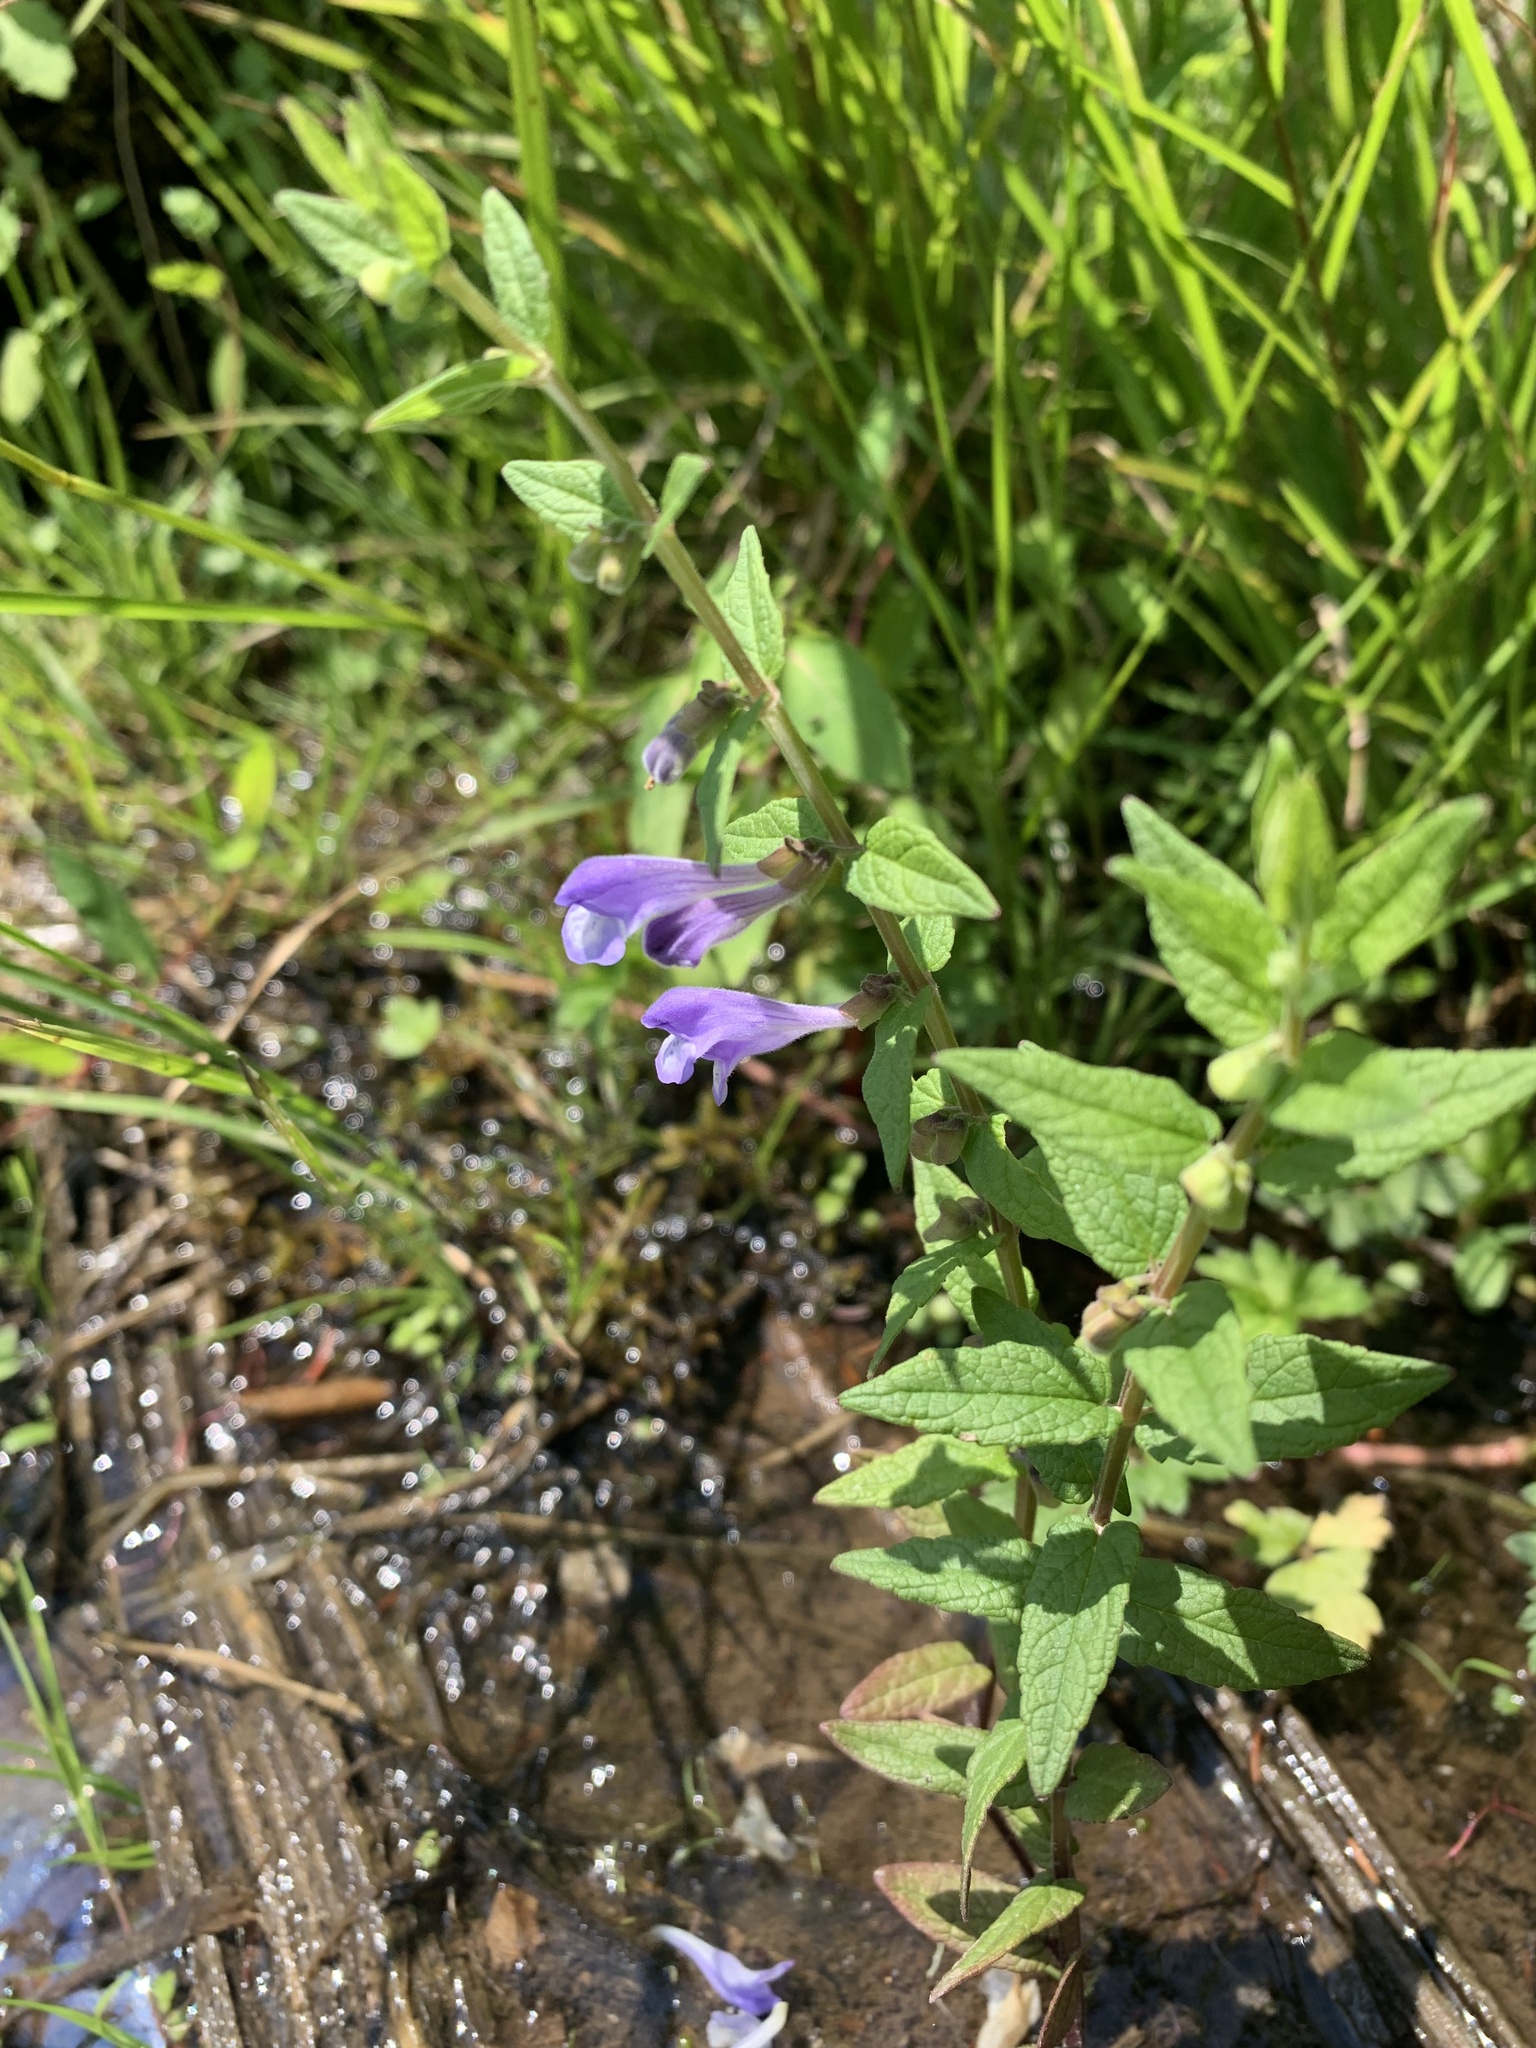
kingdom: Plantae
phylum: Tracheophyta
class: Magnoliopsida
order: Lamiales
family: Lamiaceae
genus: Scutellaria
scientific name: Scutellaria galericulata
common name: Skullcap
